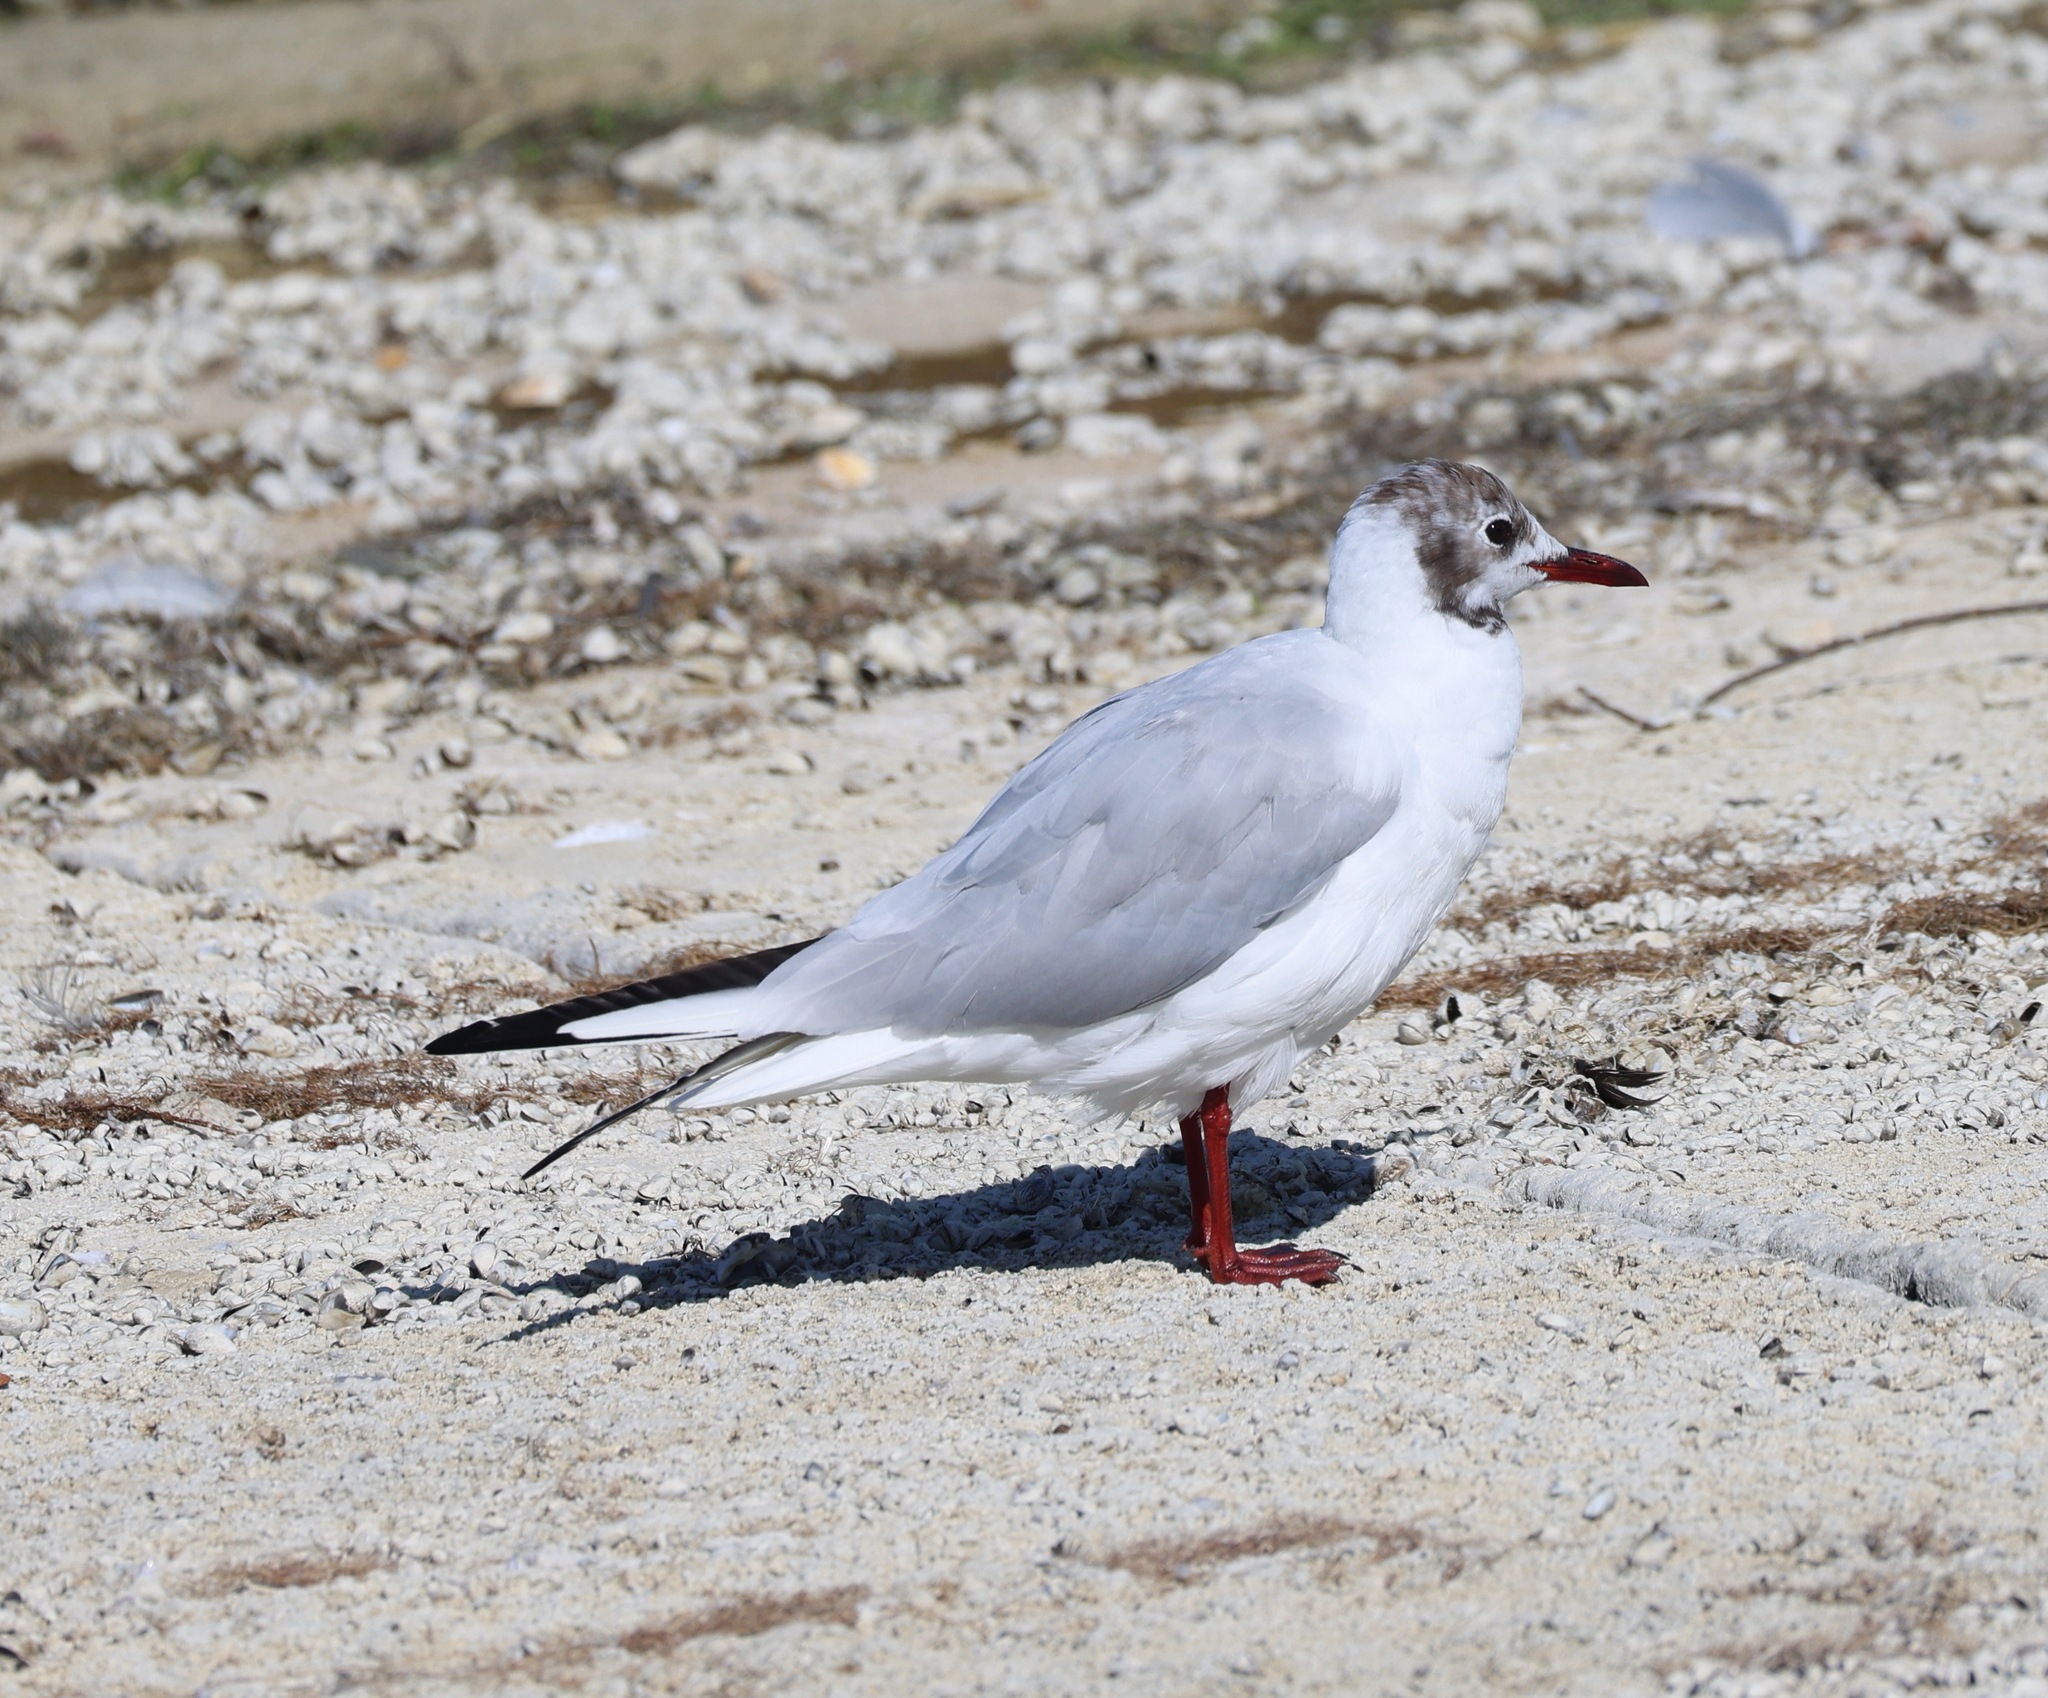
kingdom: Animalia
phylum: Chordata
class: Aves
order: Charadriiformes
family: Laridae
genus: Chroicocephalus
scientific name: Chroicocephalus ridibundus
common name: Black-headed gull
